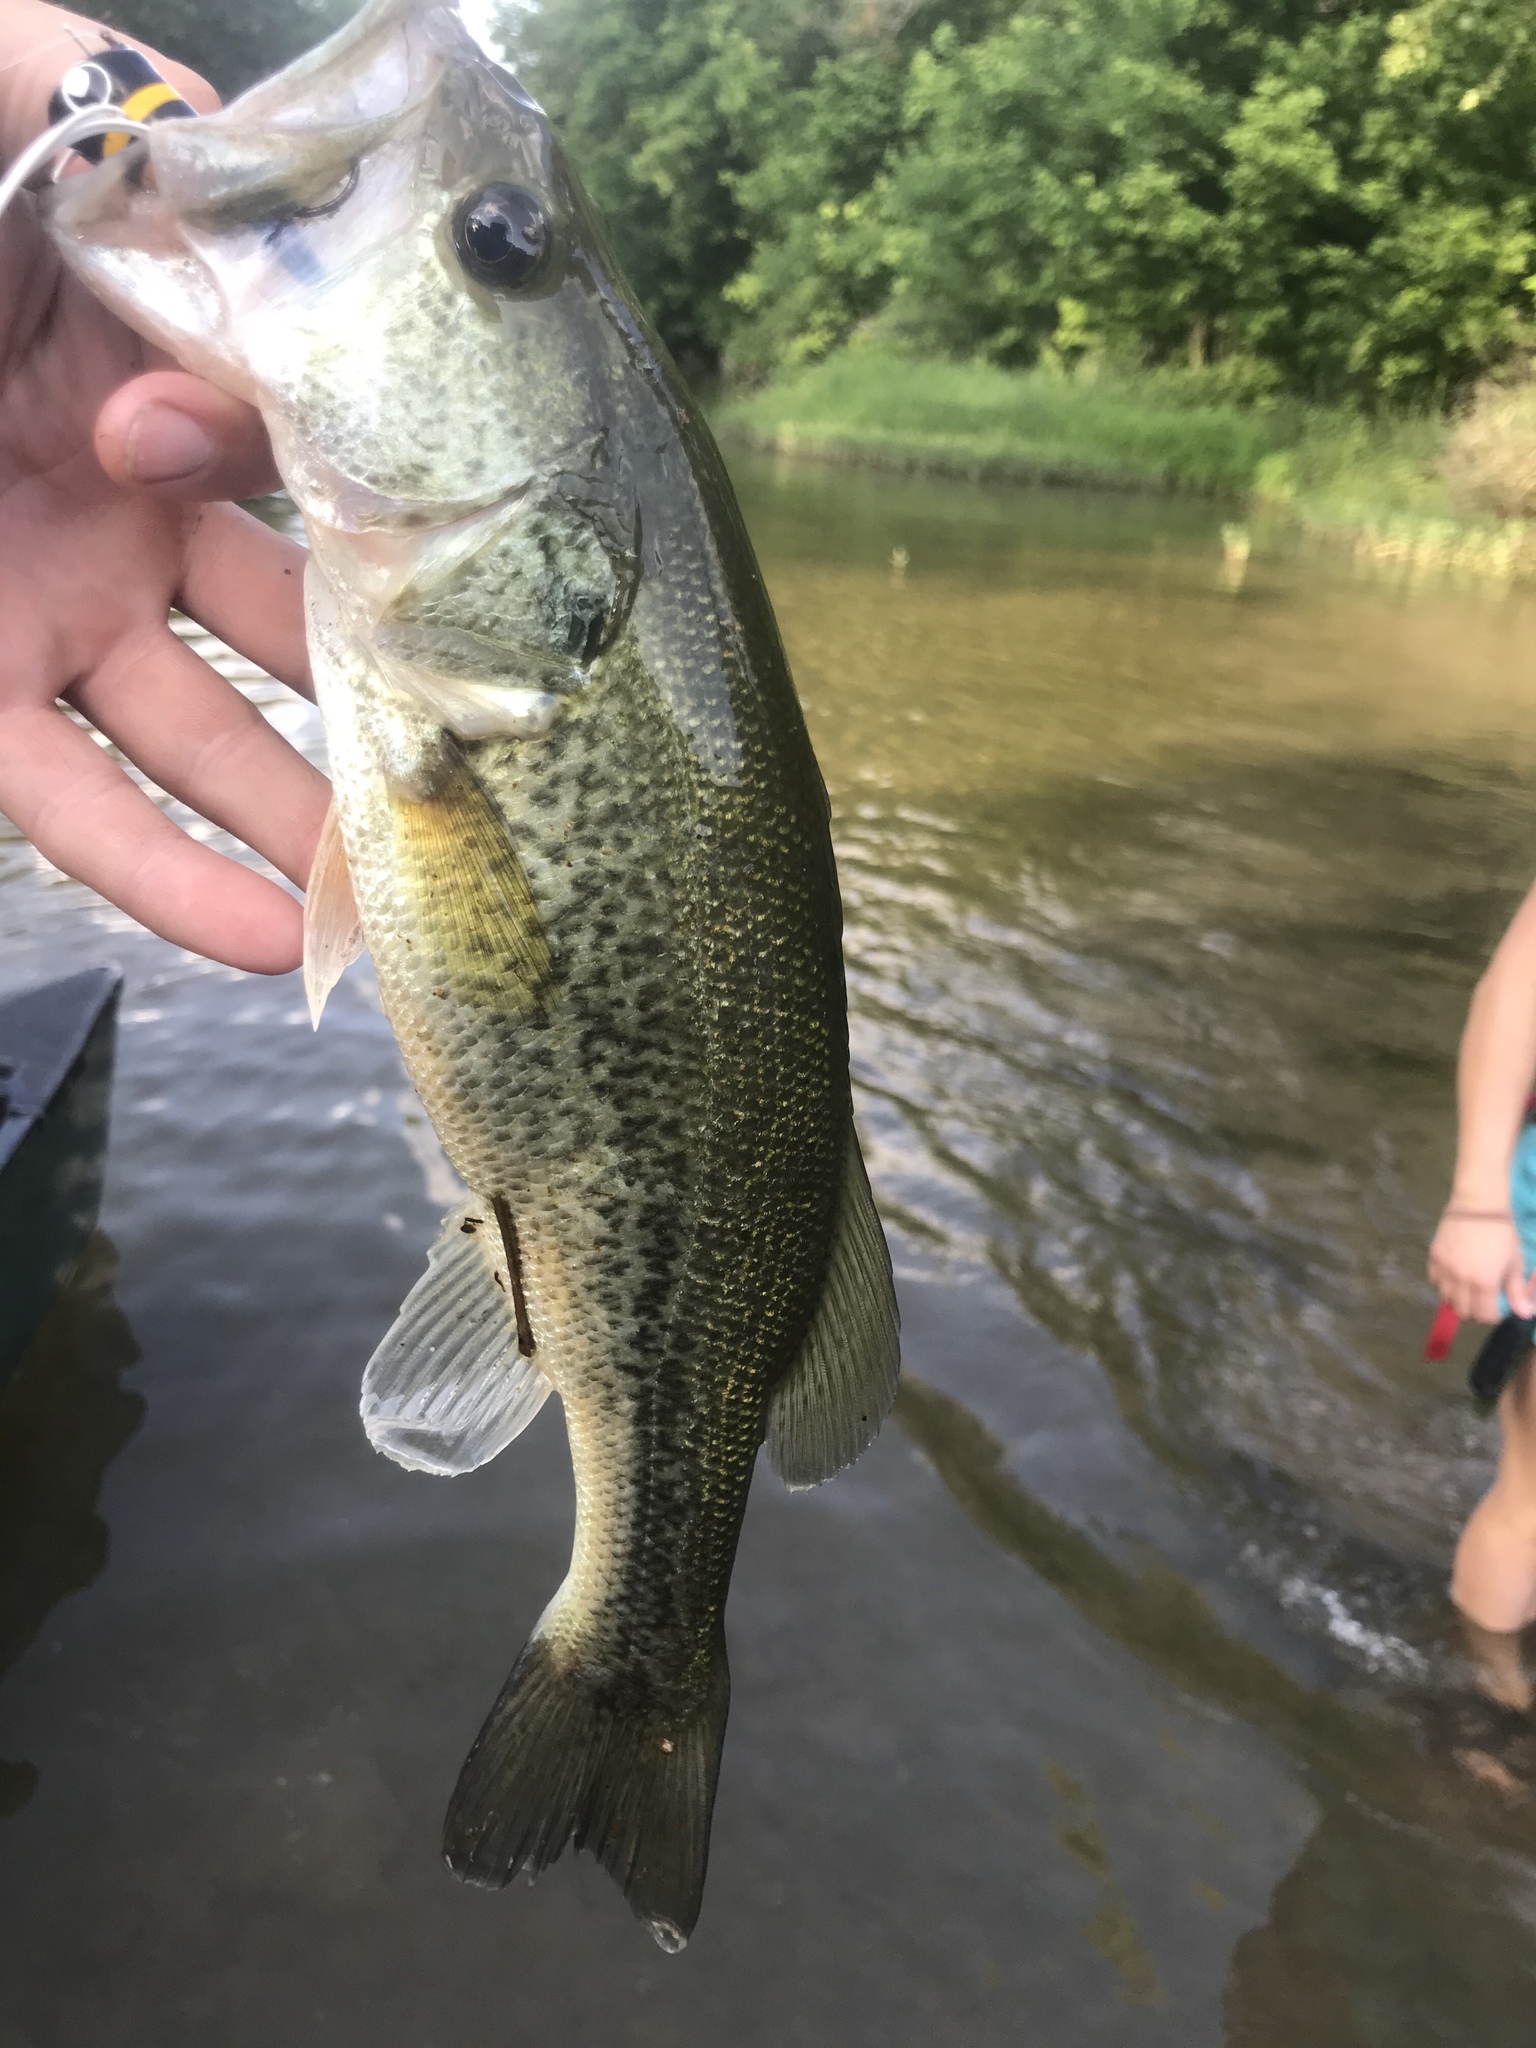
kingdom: Animalia
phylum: Chordata
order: Perciformes
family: Centrarchidae
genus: Micropterus
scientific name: Micropterus
